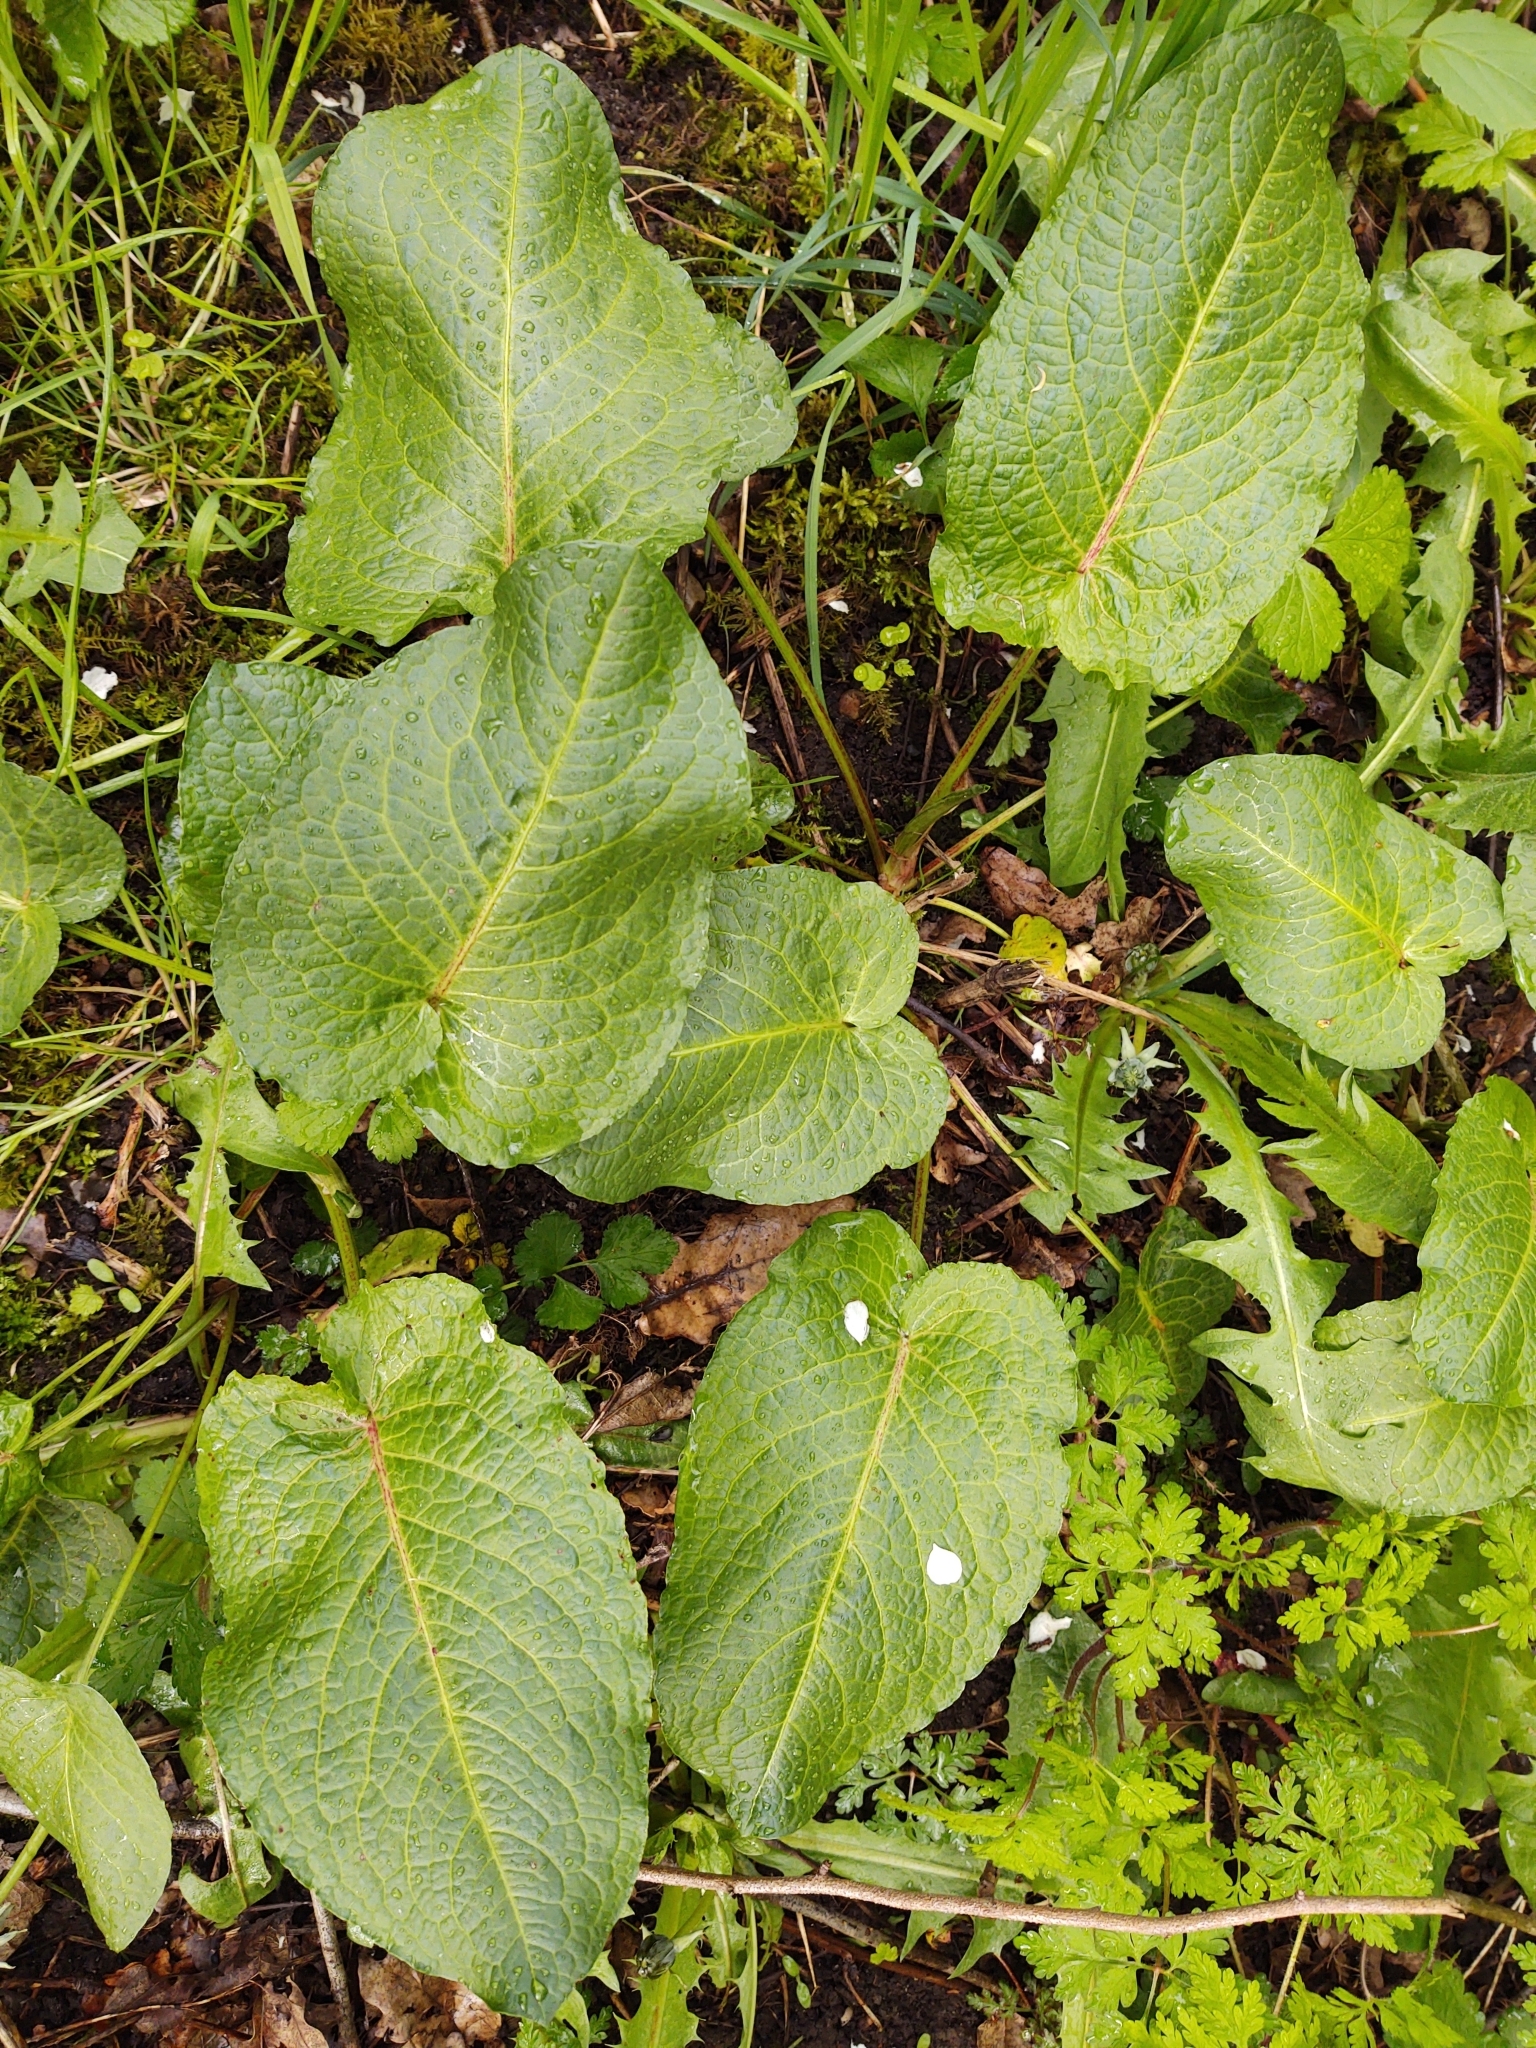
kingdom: Plantae
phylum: Tracheophyta
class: Magnoliopsida
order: Caryophyllales
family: Polygonaceae
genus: Rumex
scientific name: Rumex obtusifolius
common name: Bitter dock
